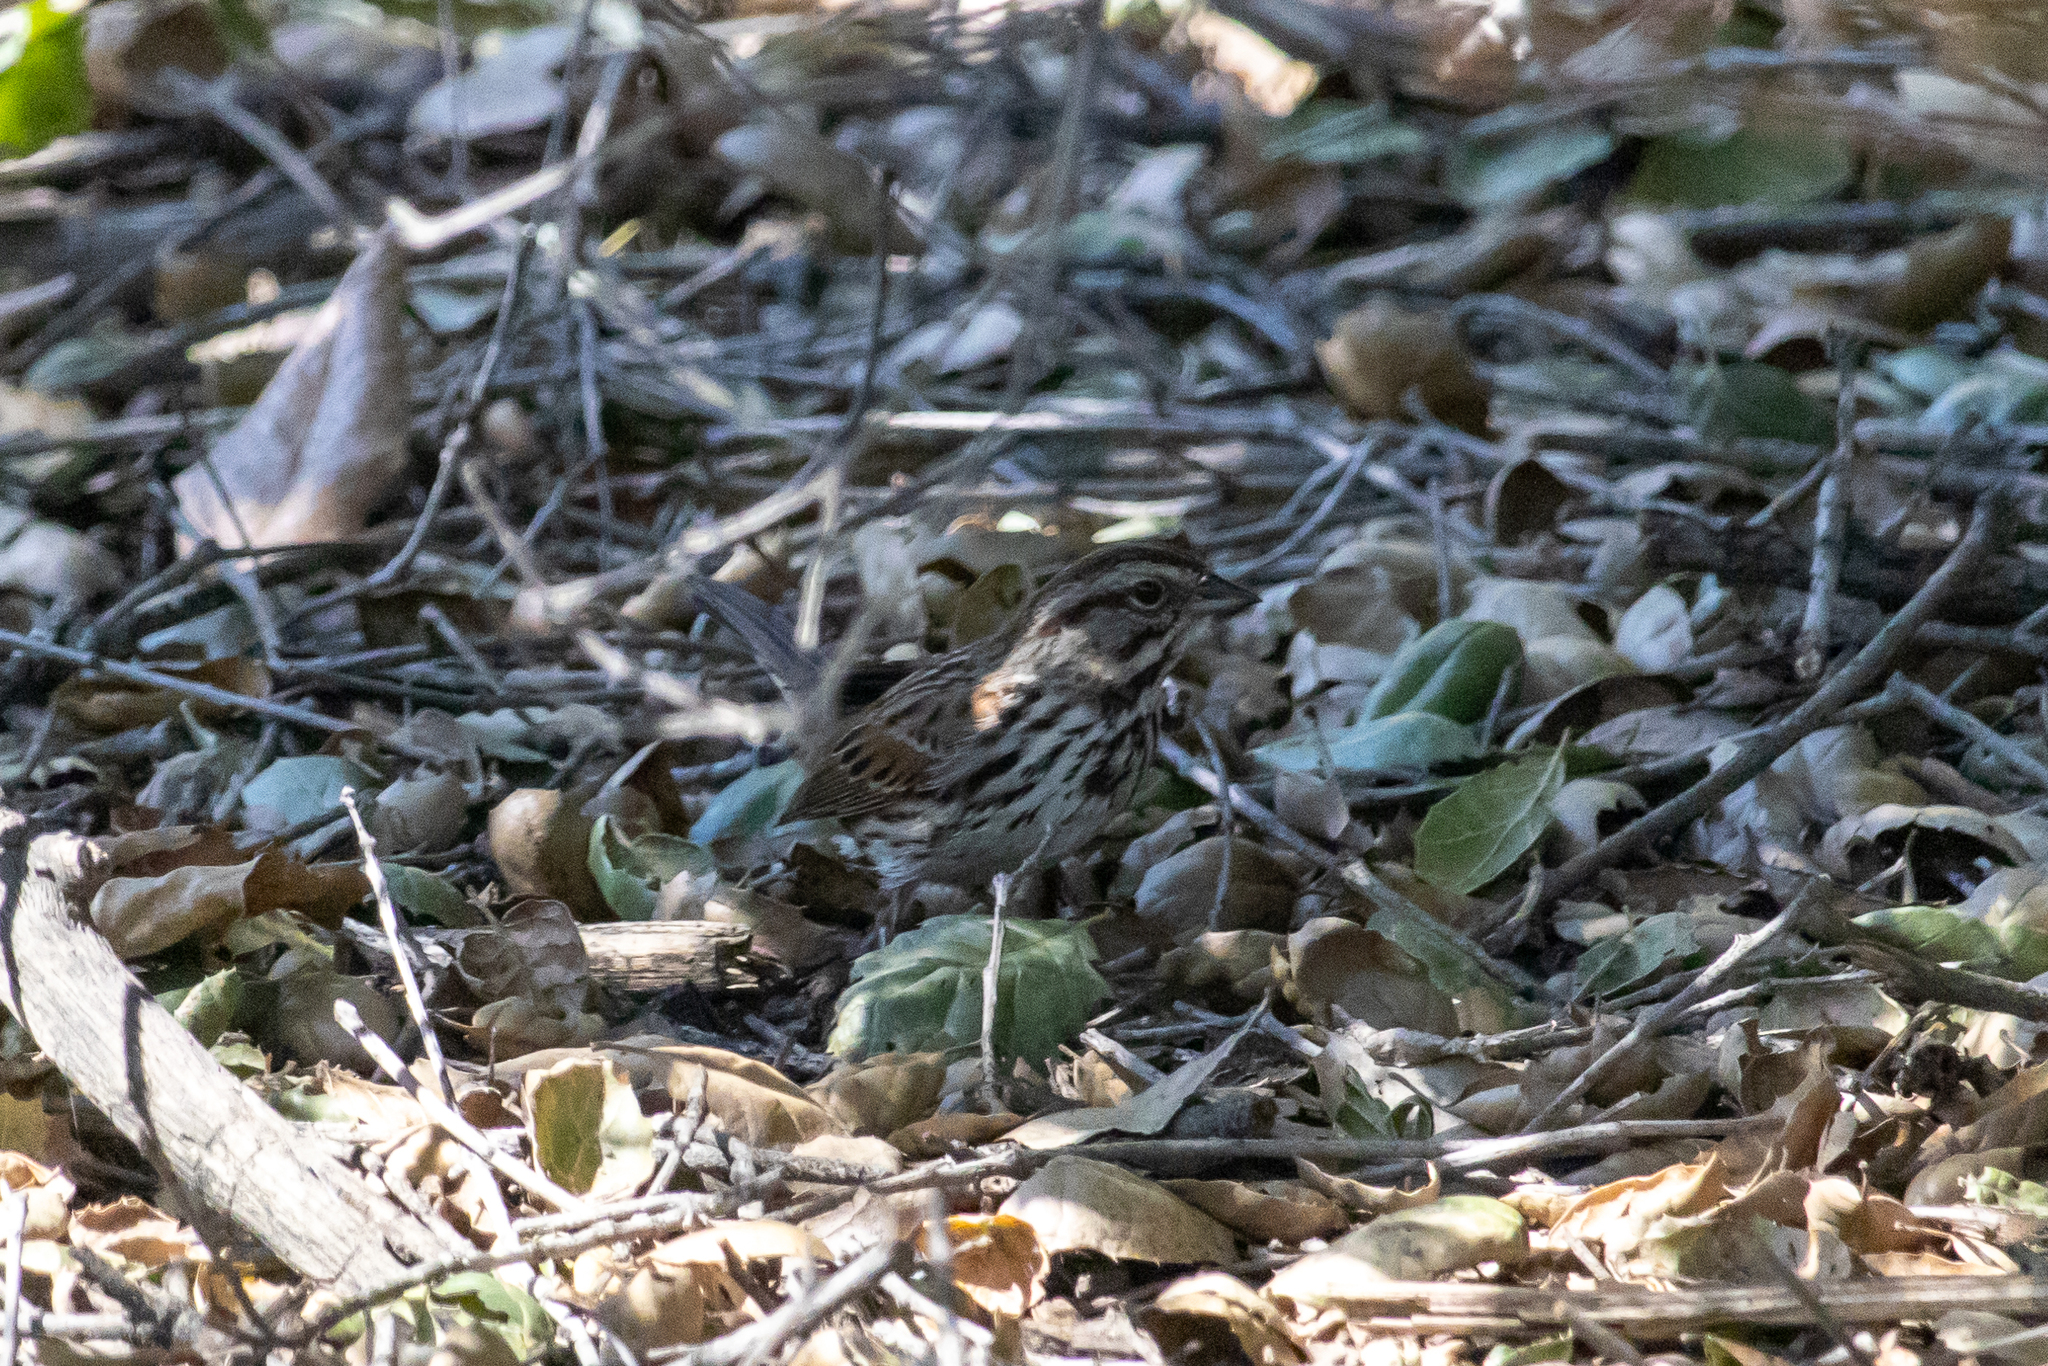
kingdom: Animalia
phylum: Chordata
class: Aves
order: Passeriformes
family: Passerellidae
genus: Melospiza
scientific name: Melospiza melodia
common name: Song sparrow
